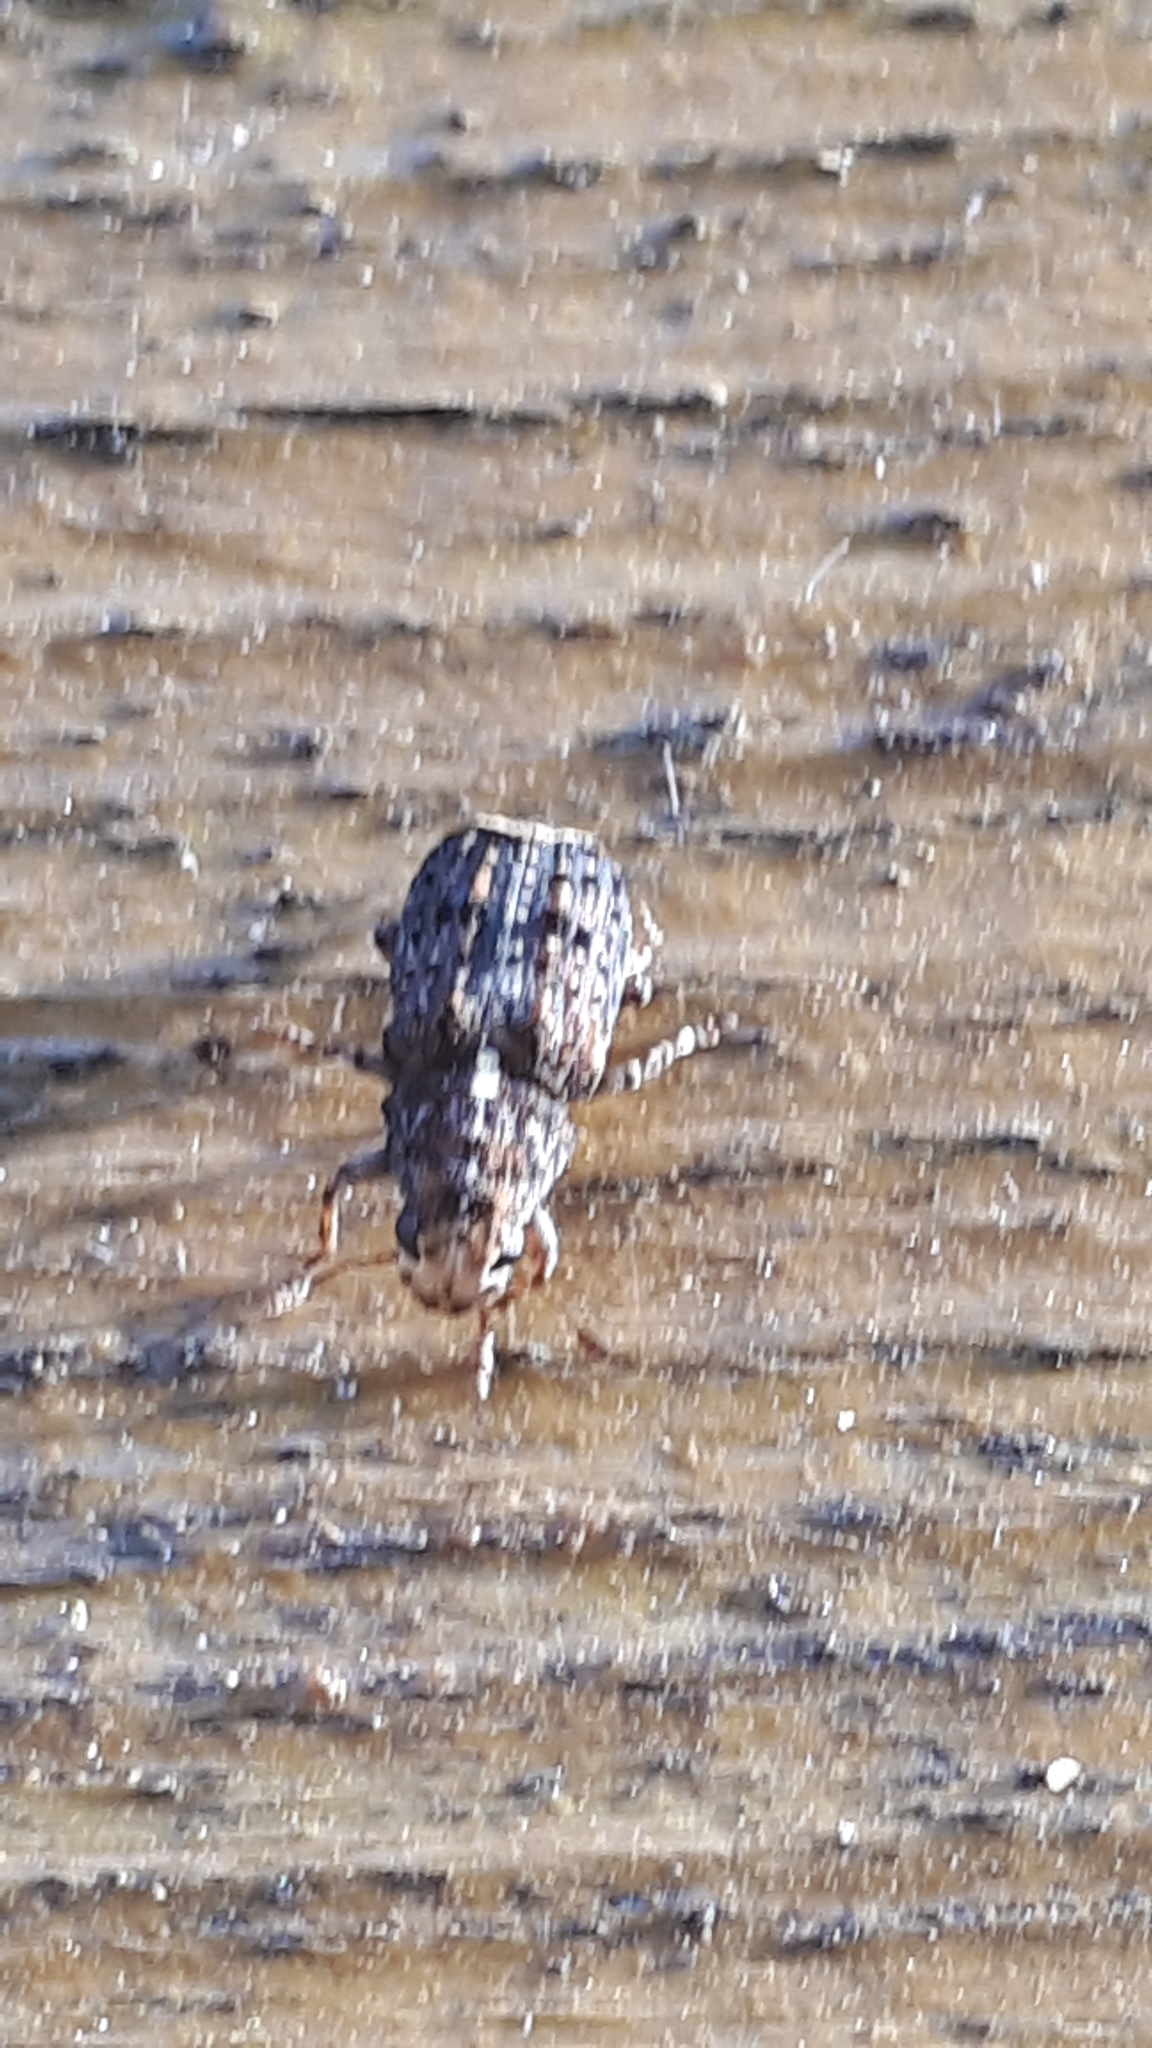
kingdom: Animalia
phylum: Arthropoda
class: Insecta
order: Coleoptera
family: Anthribidae
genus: Dissoleucas
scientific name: Dissoleucas niveirostris
